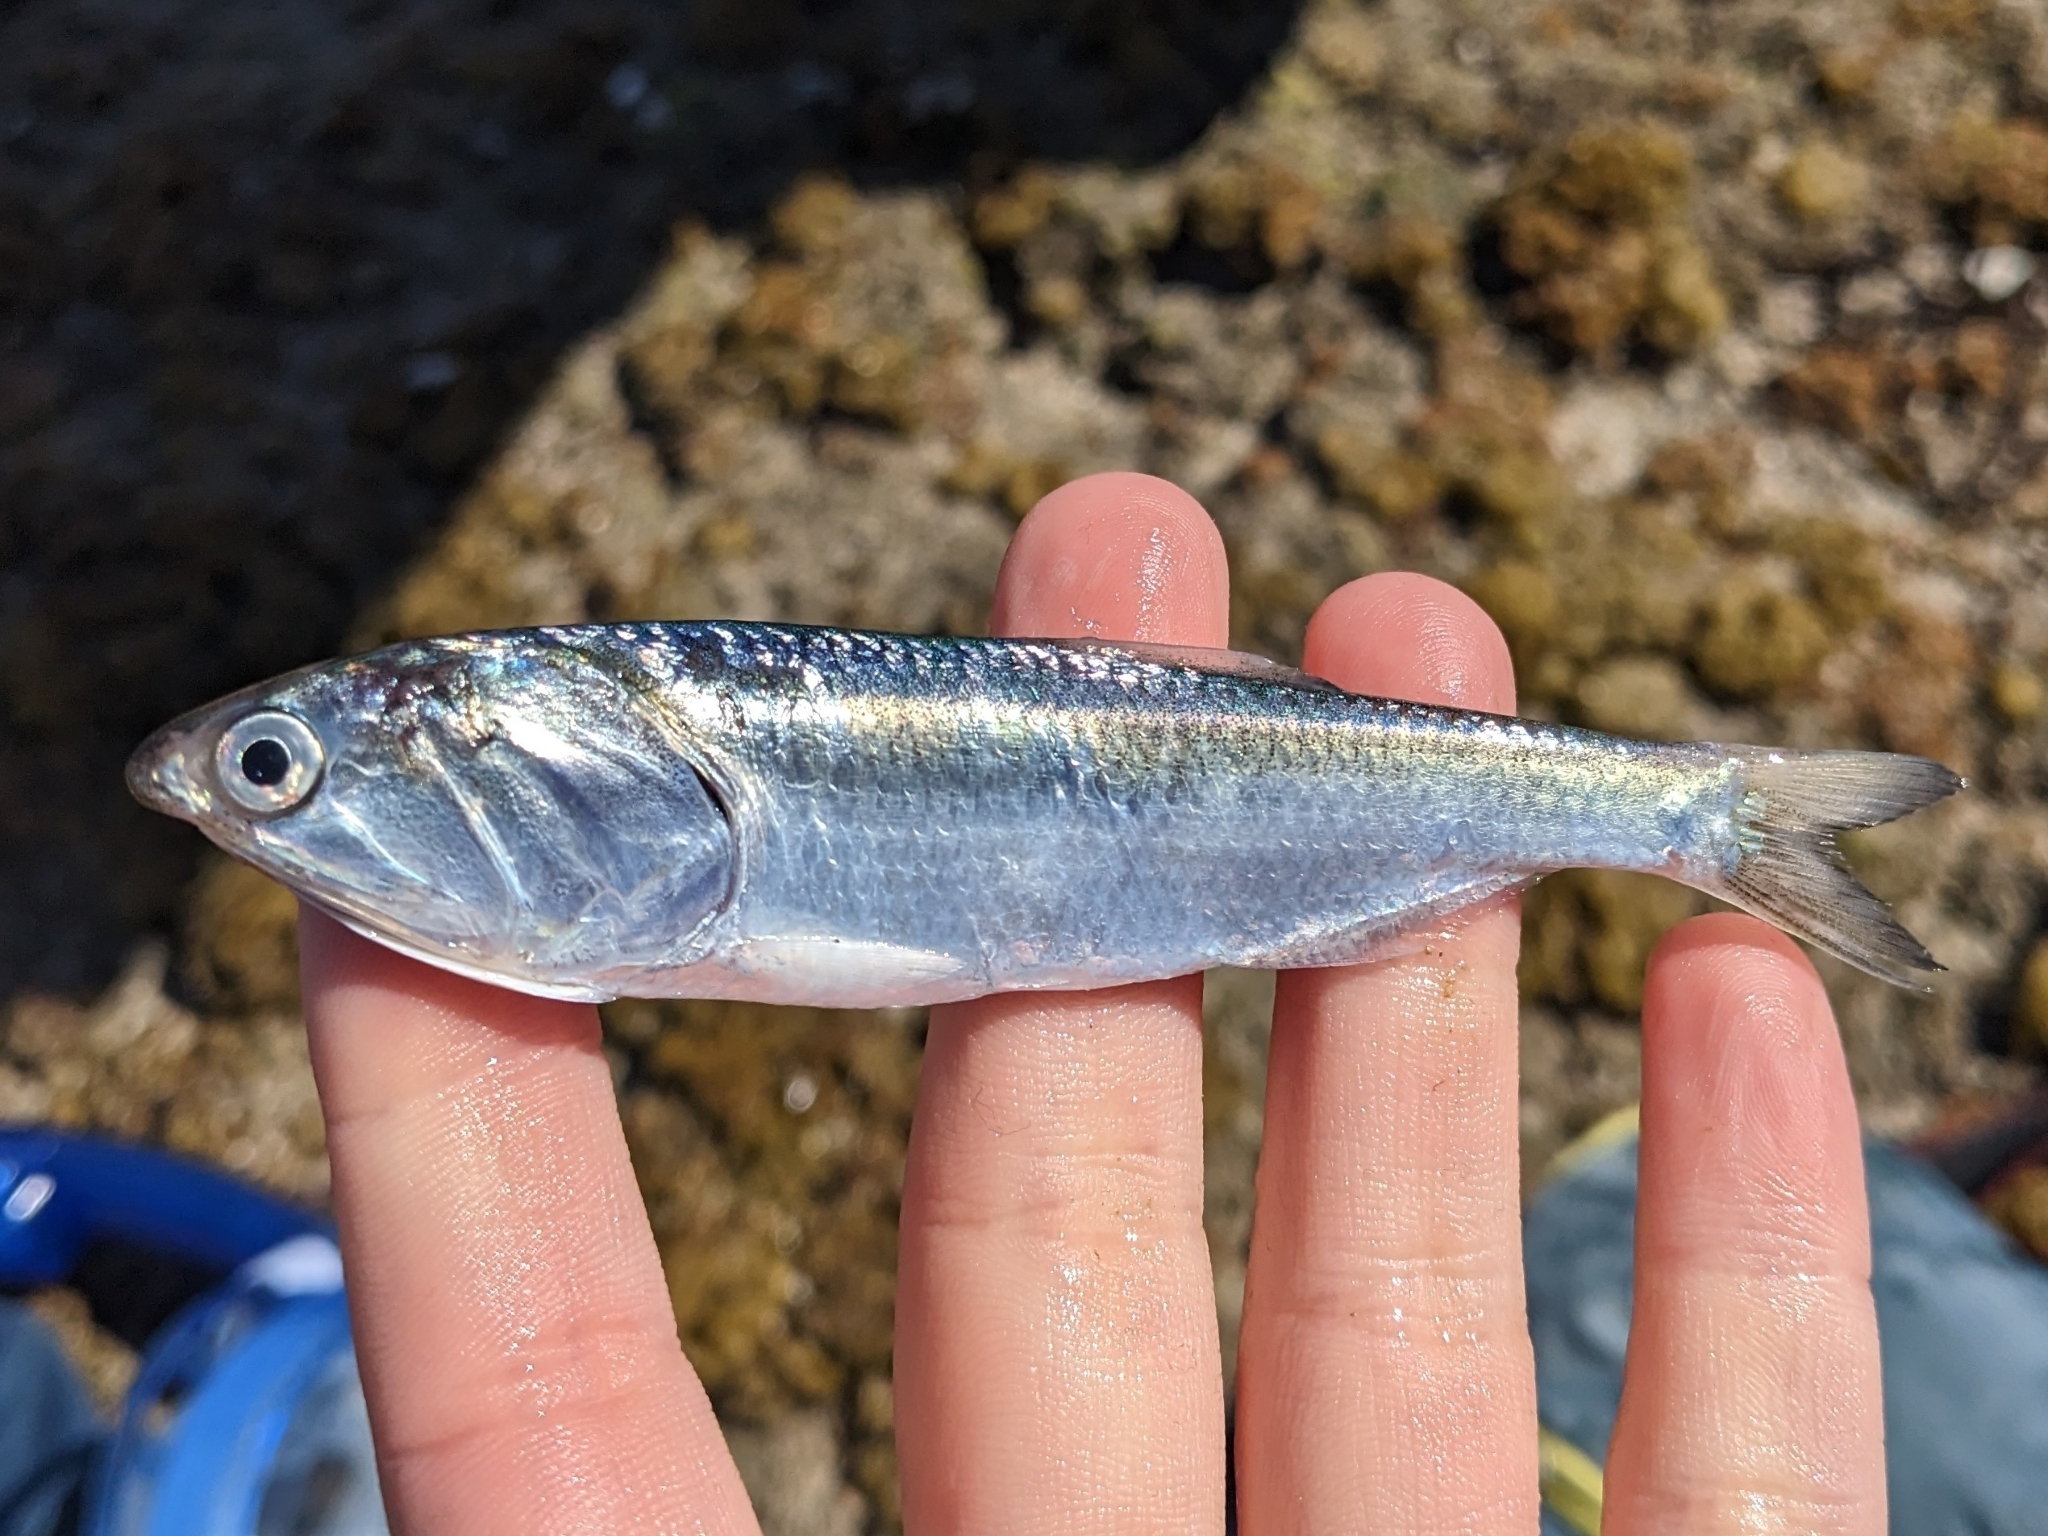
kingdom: Animalia
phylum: Chordata
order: Clupeiformes
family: Engraulidae
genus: Cetengraulis
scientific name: Cetengraulis mysticetus
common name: Anchoveta
